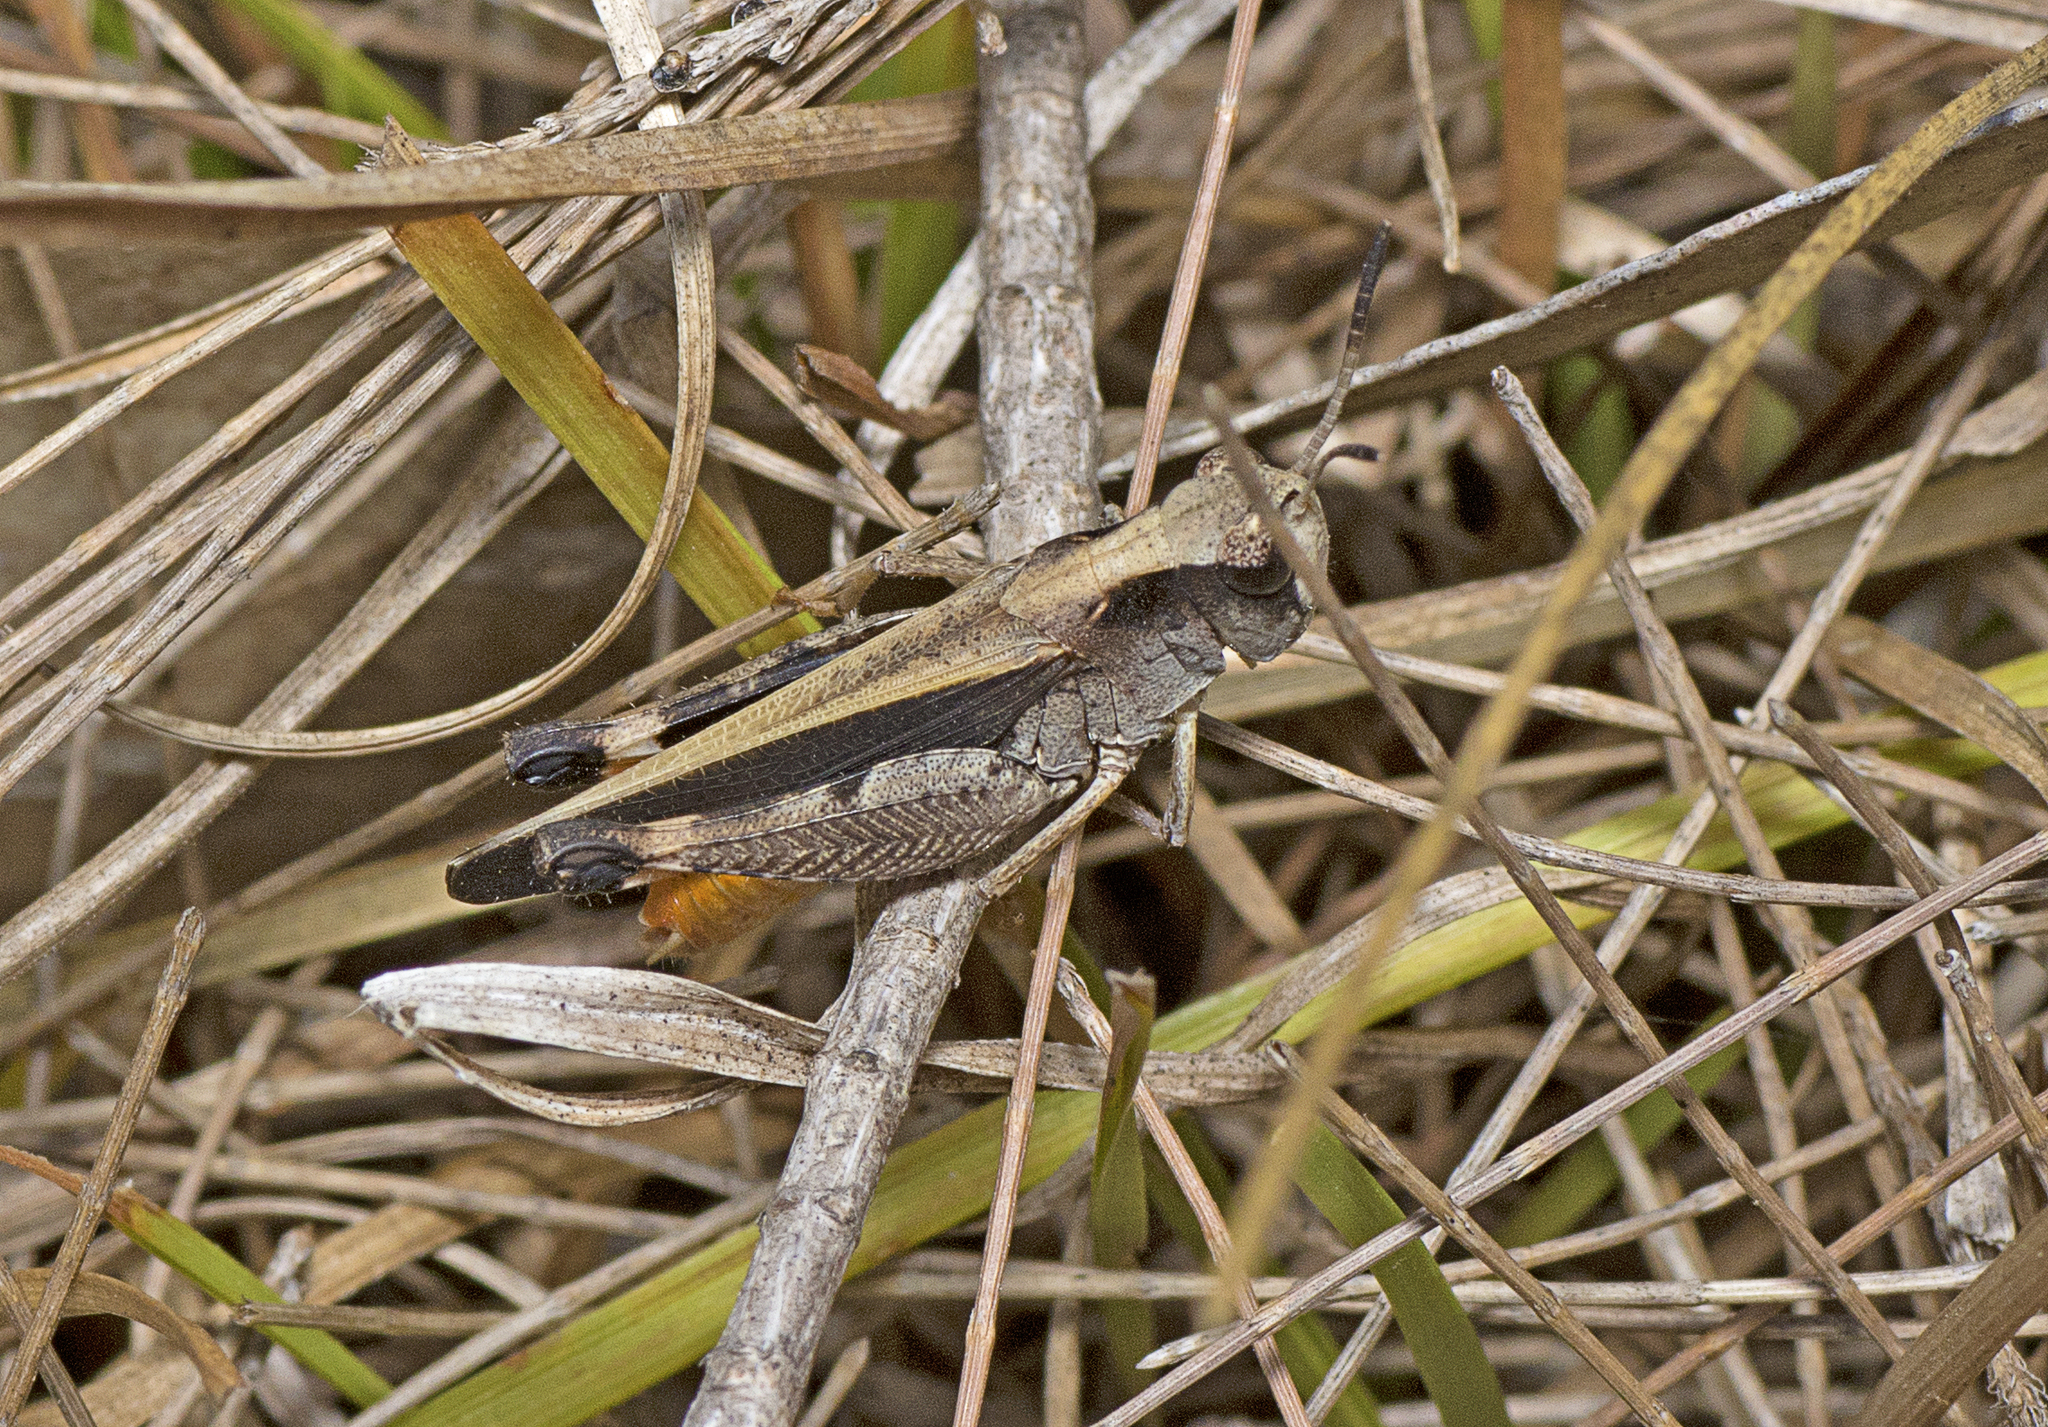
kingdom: Animalia
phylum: Arthropoda
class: Insecta
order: Orthoptera
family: Acrididae
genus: Cryptobothrus
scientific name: Cryptobothrus chrysophorus
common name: Golden bandwing
